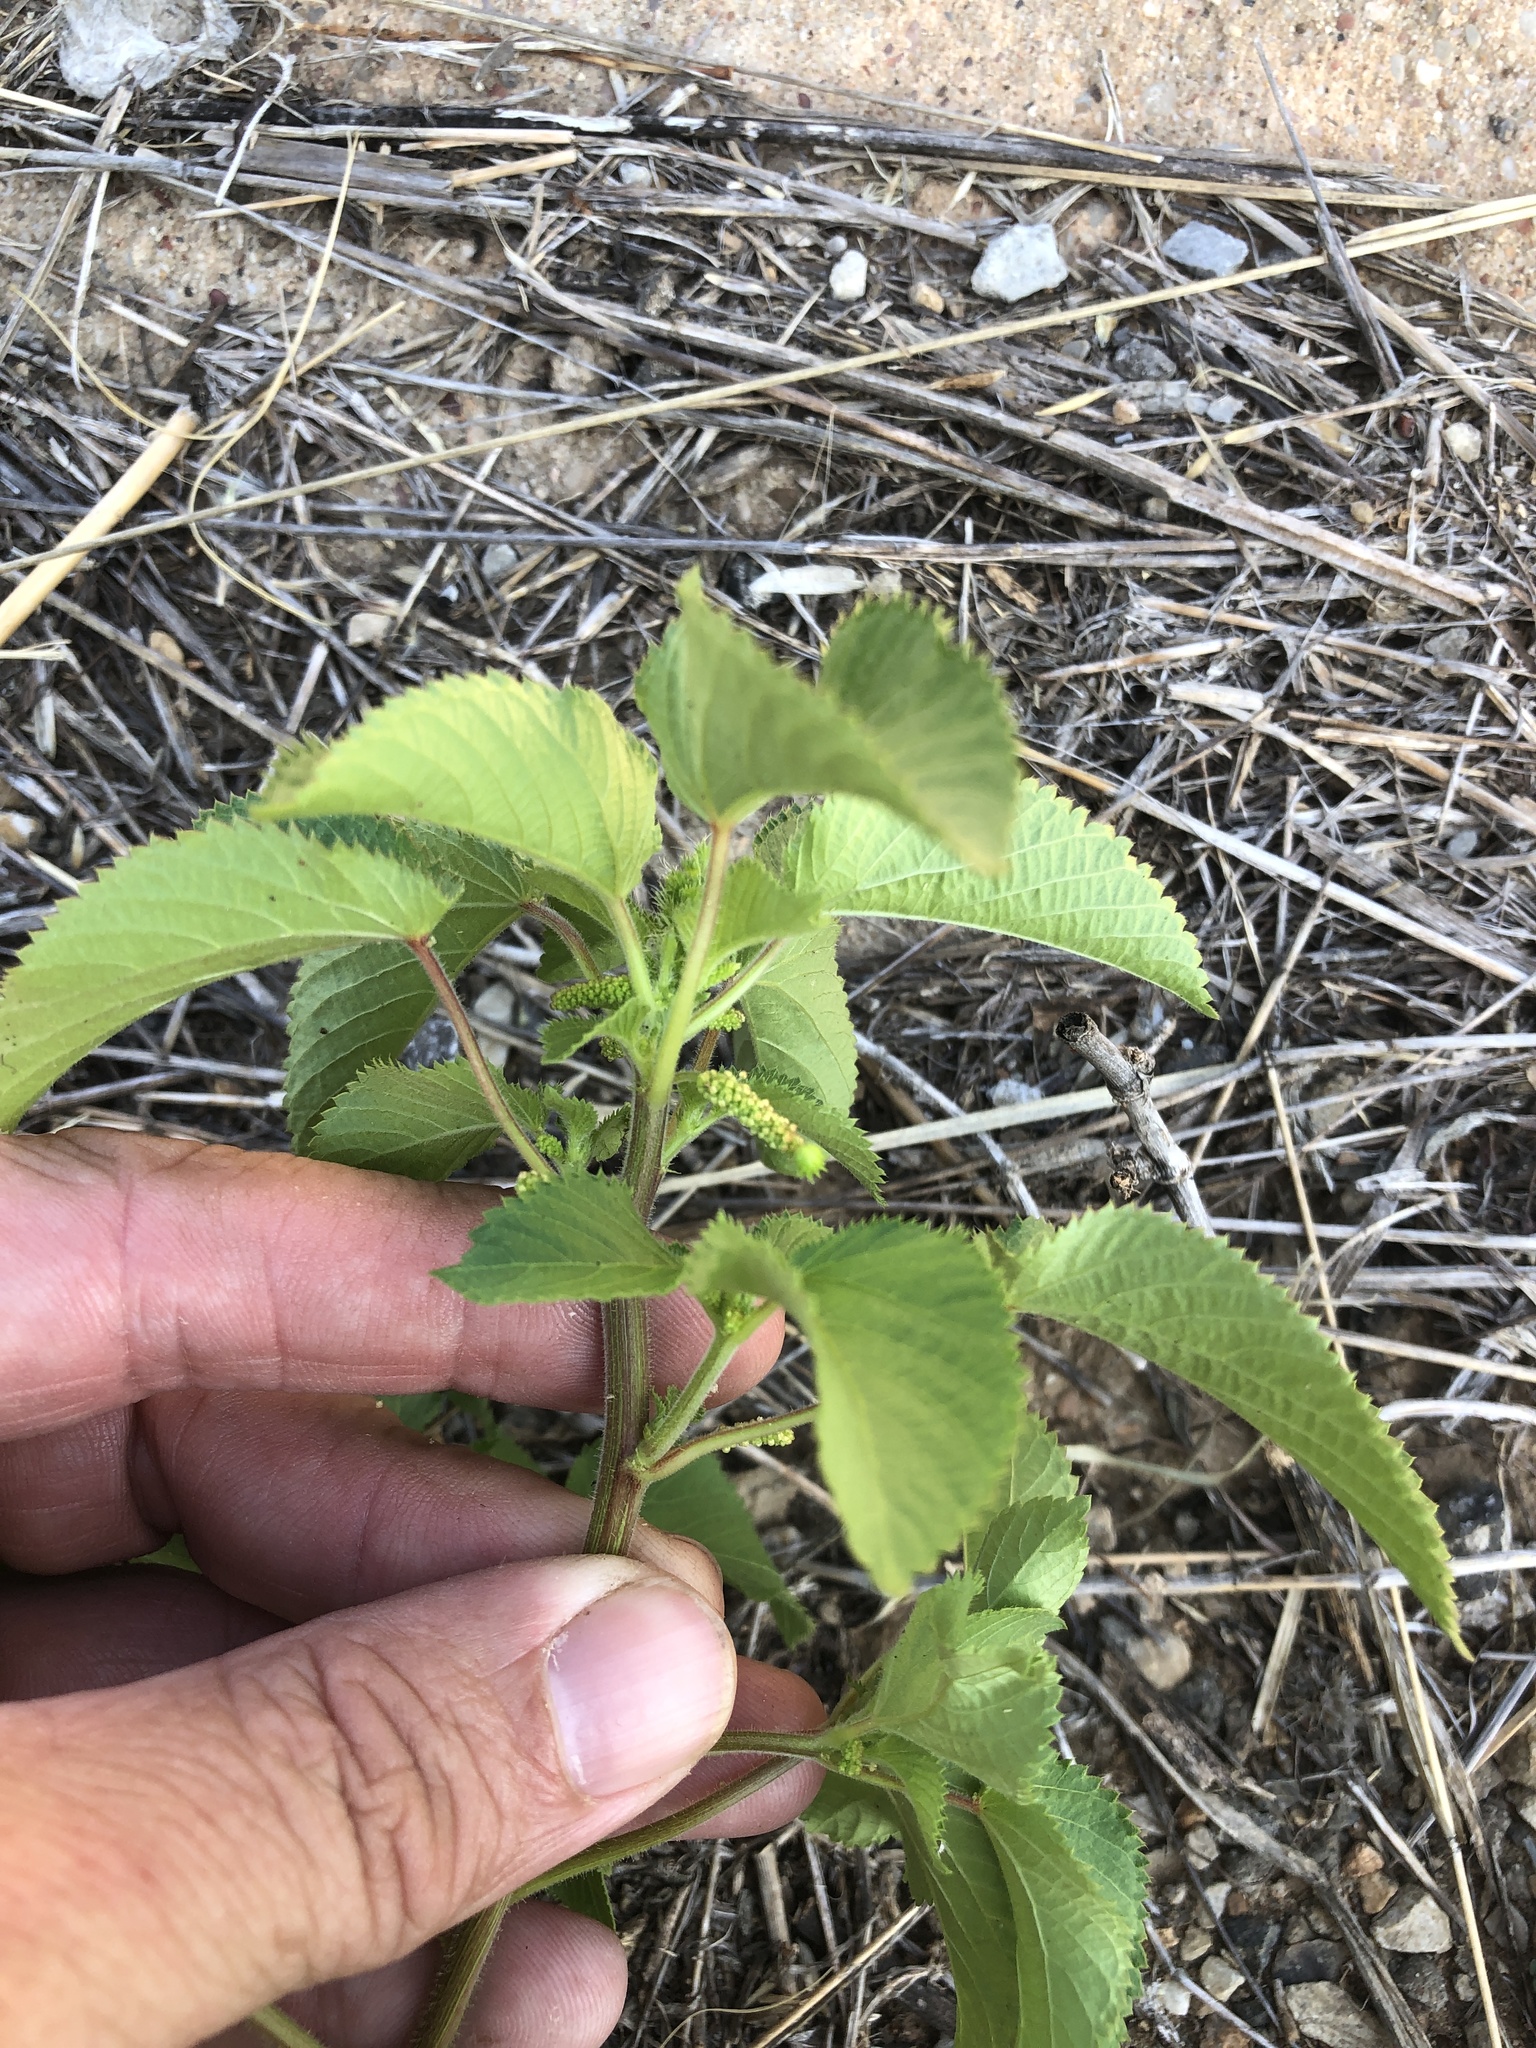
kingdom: Plantae
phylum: Tracheophyta
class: Magnoliopsida
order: Malpighiales
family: Euphorbiaceae
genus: Acalypha
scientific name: Acalypha ostryifolia
